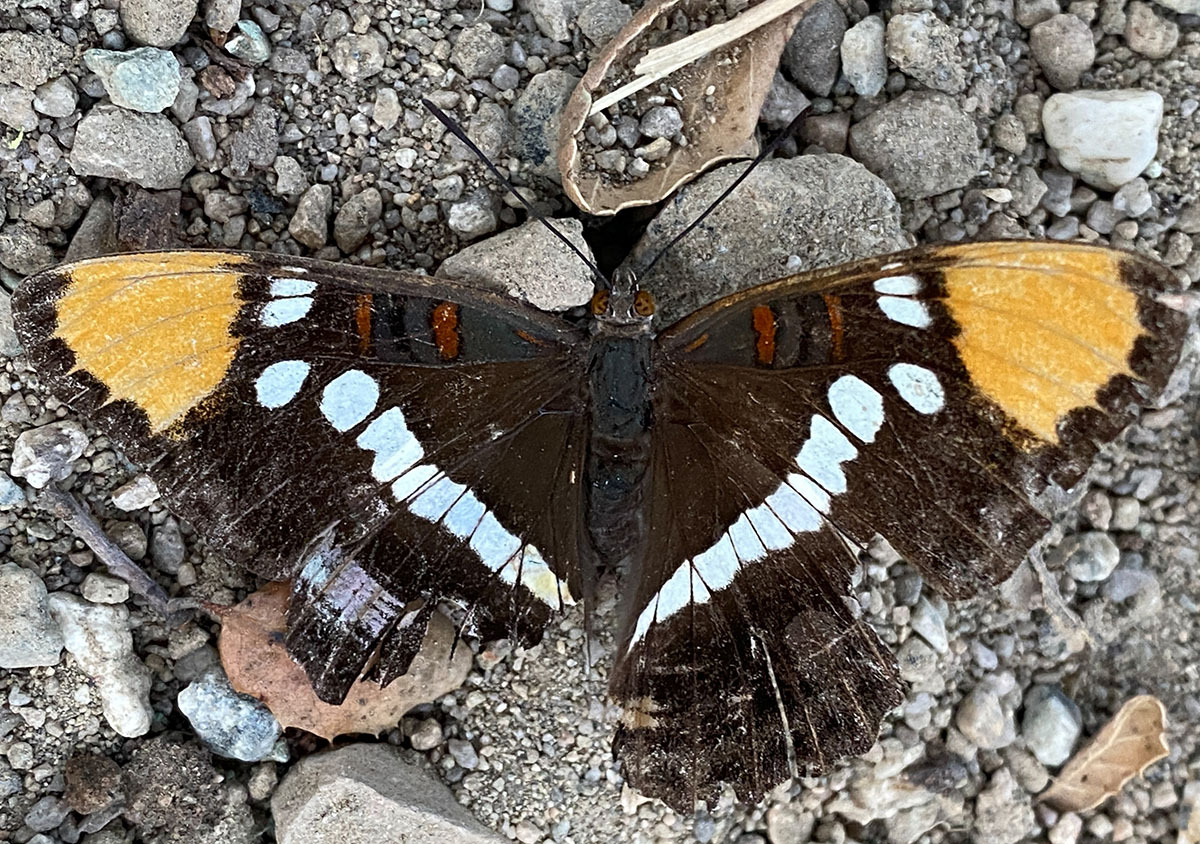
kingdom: Animalia
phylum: Arthropoda
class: Insecta
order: Lepidoptera
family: Nymphalidae
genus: Limenitis
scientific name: Limenitis bredowii
